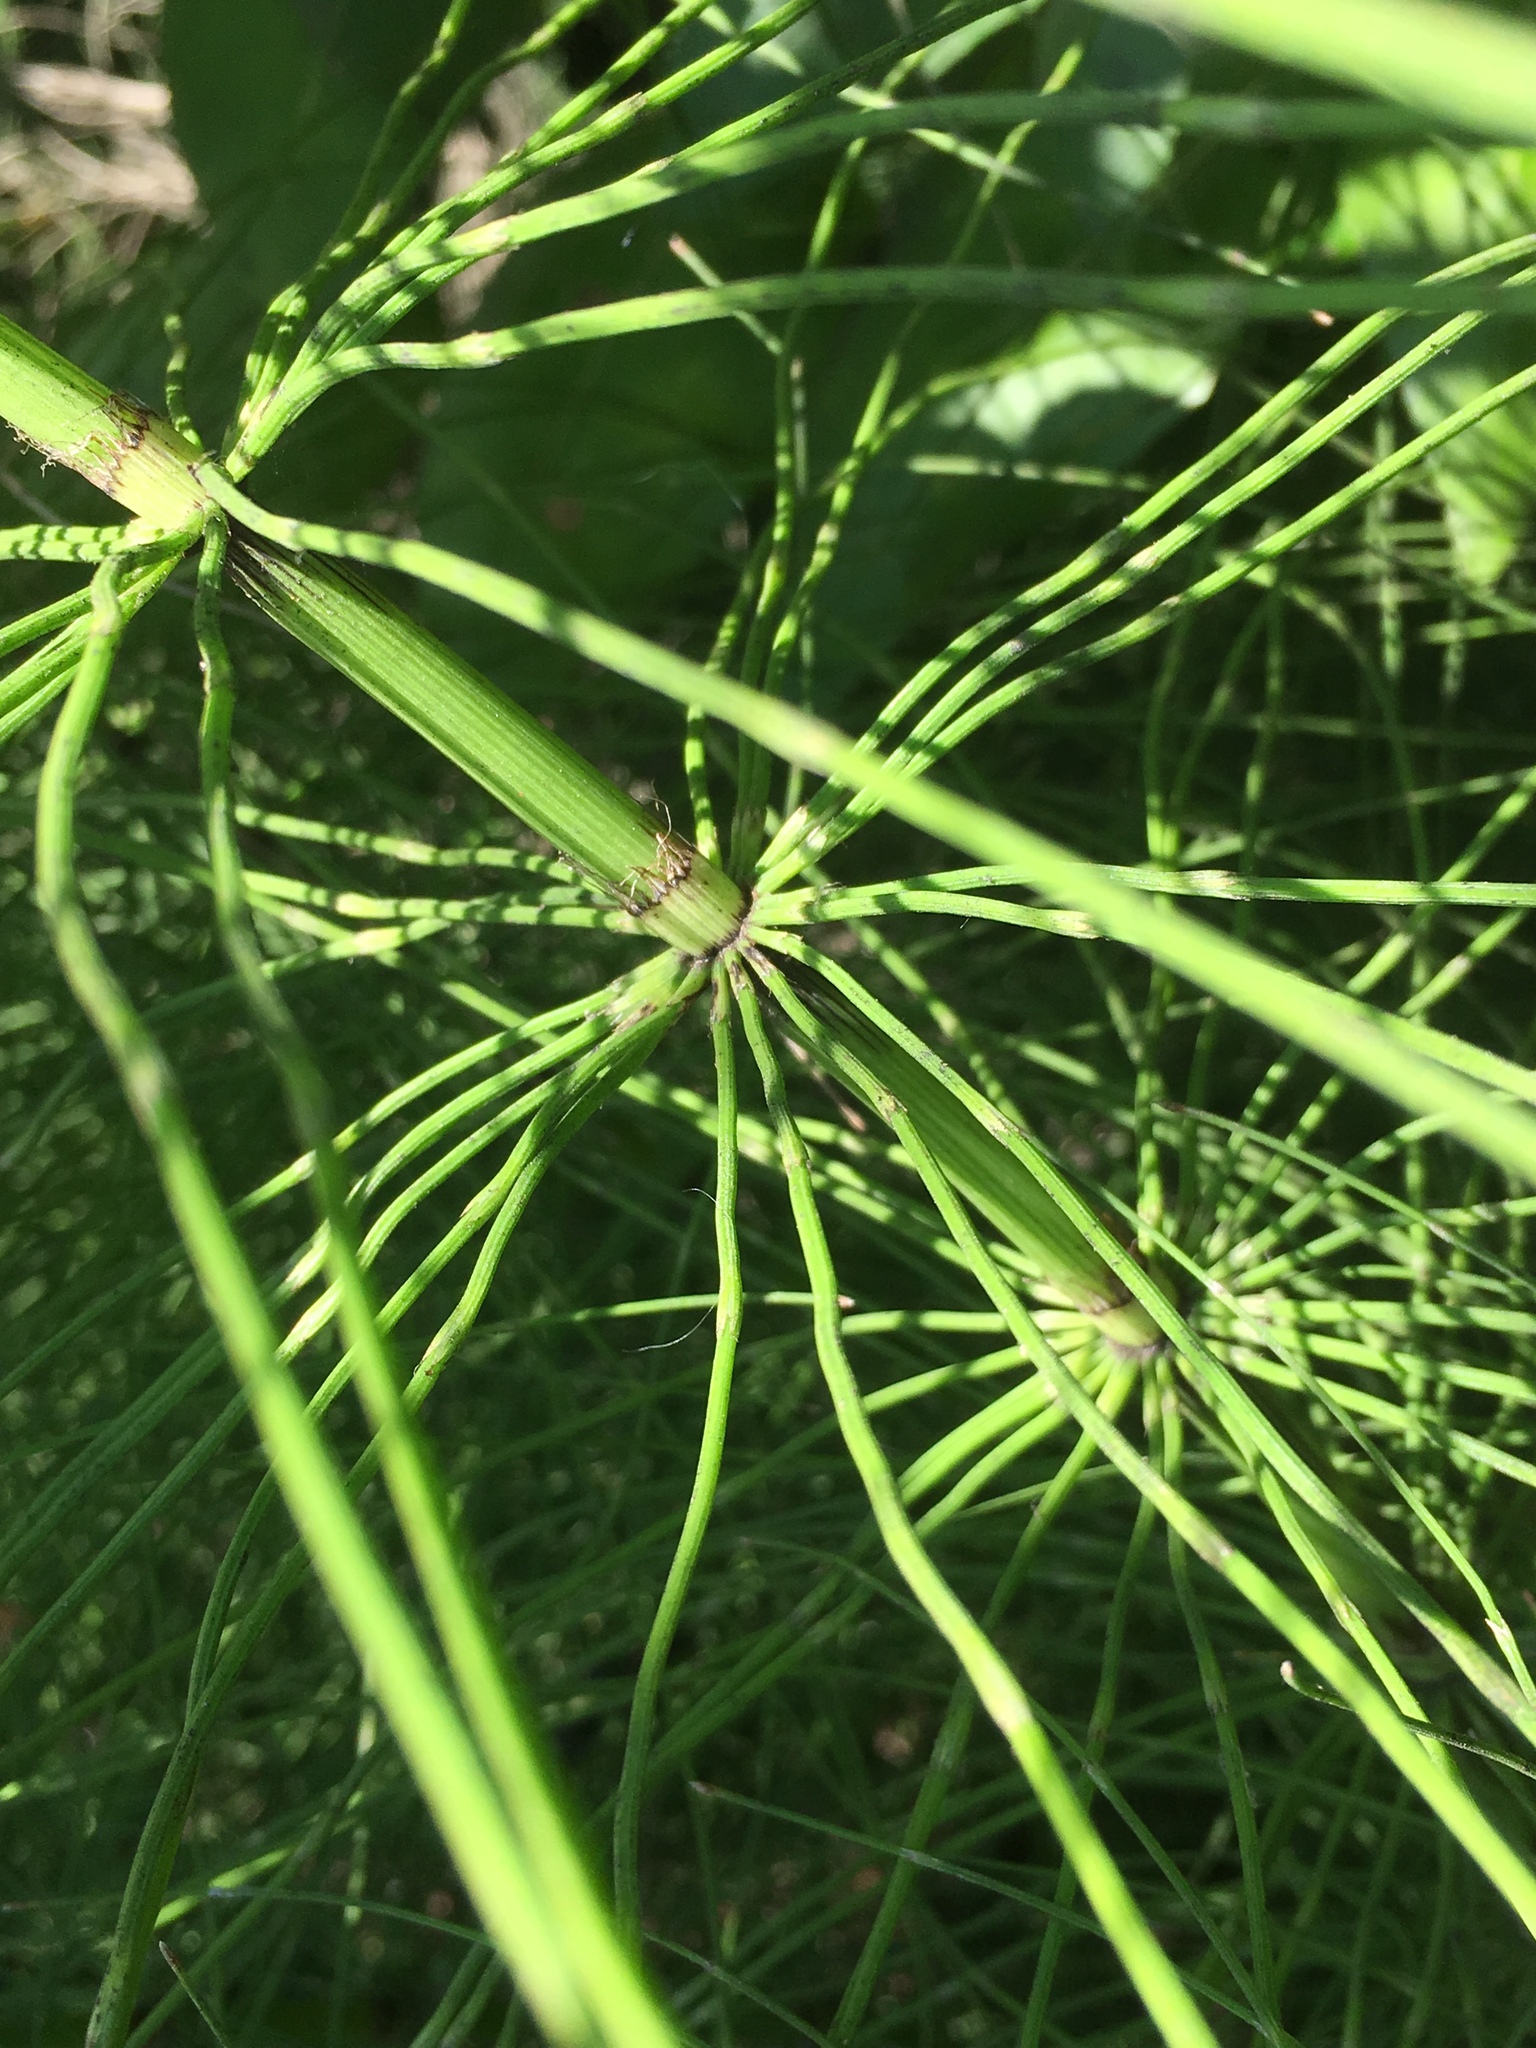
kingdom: Plantae
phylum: Tracheophyta
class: Polypodiopsida
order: Equisetales
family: Equisetaceae
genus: Equisetum
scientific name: Equisetum braunii
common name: Braun's horsetail
